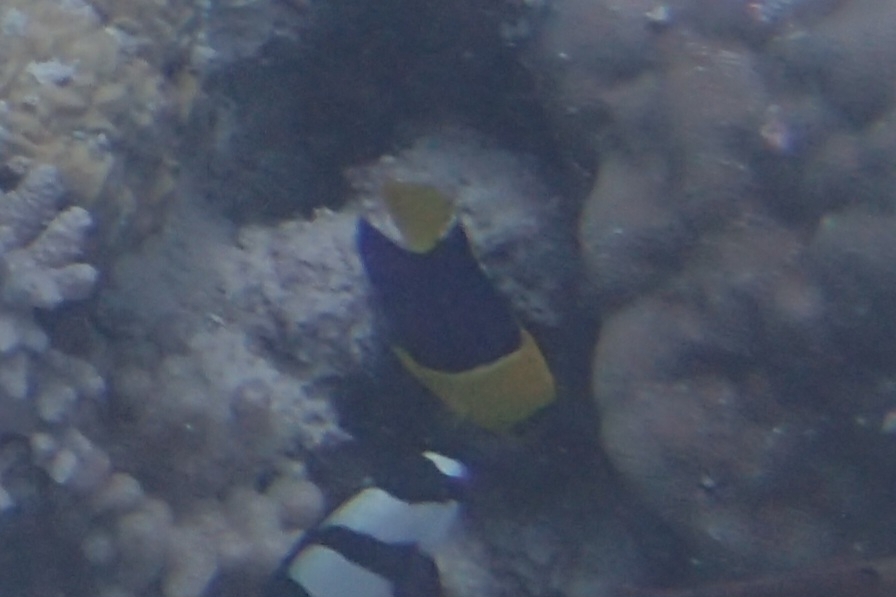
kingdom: Animalia
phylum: Chordata
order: Perciformes
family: Pomacanthidae
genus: Centropyge
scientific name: Centropyge bicolor
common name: Bicolor angelfish
